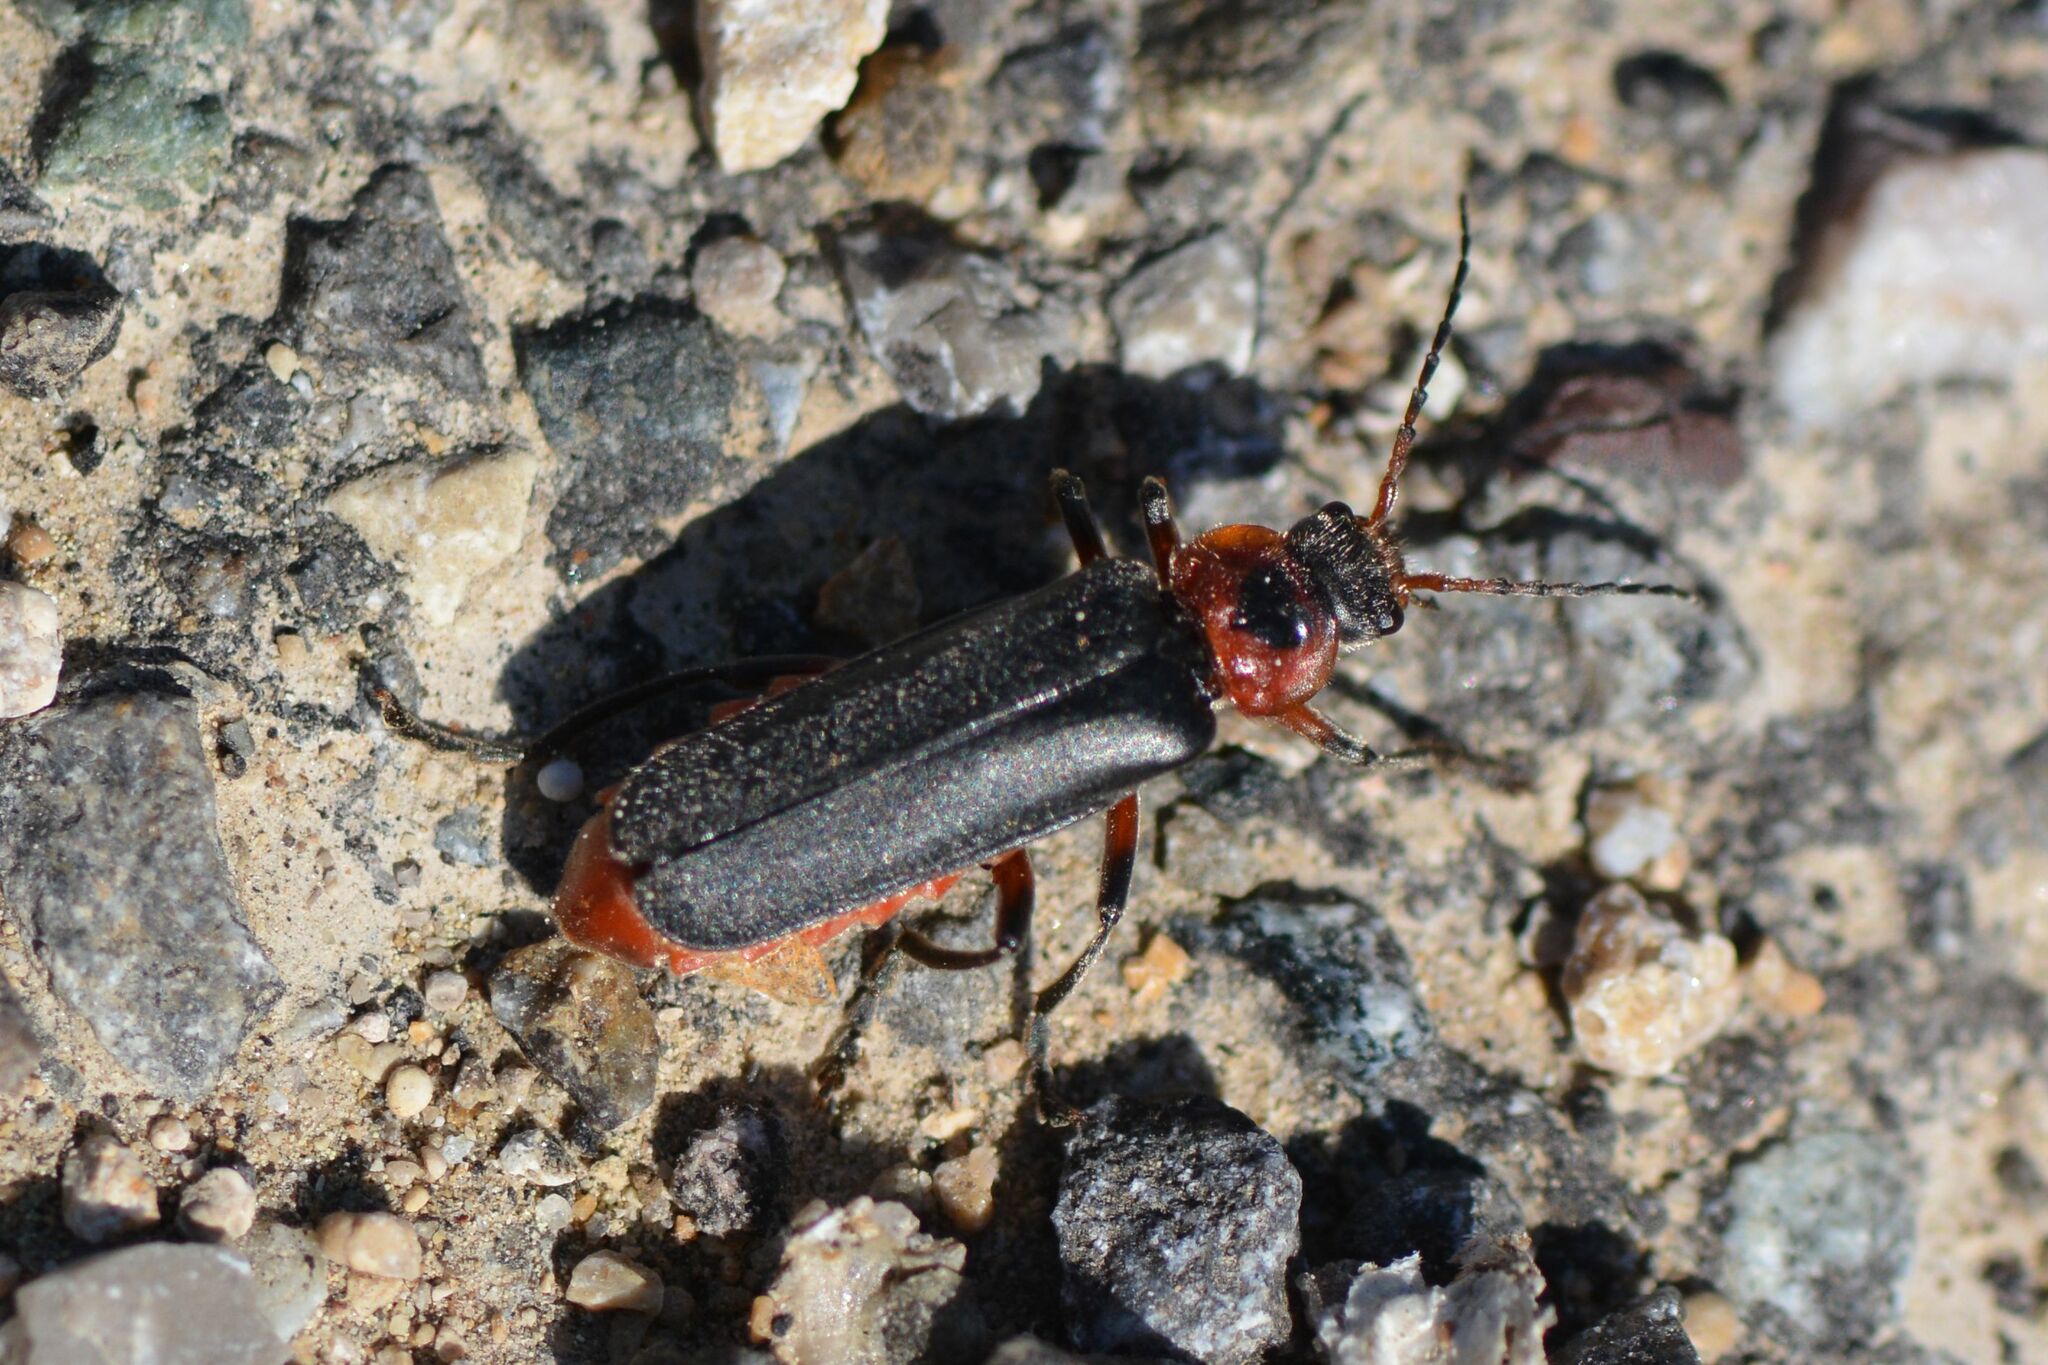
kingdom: Animalia
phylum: Arthropoda
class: Insecta
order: Coleoptera
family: Cantharidae
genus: Cantharis
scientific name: Cantharis rustica
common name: Soldier beetle
